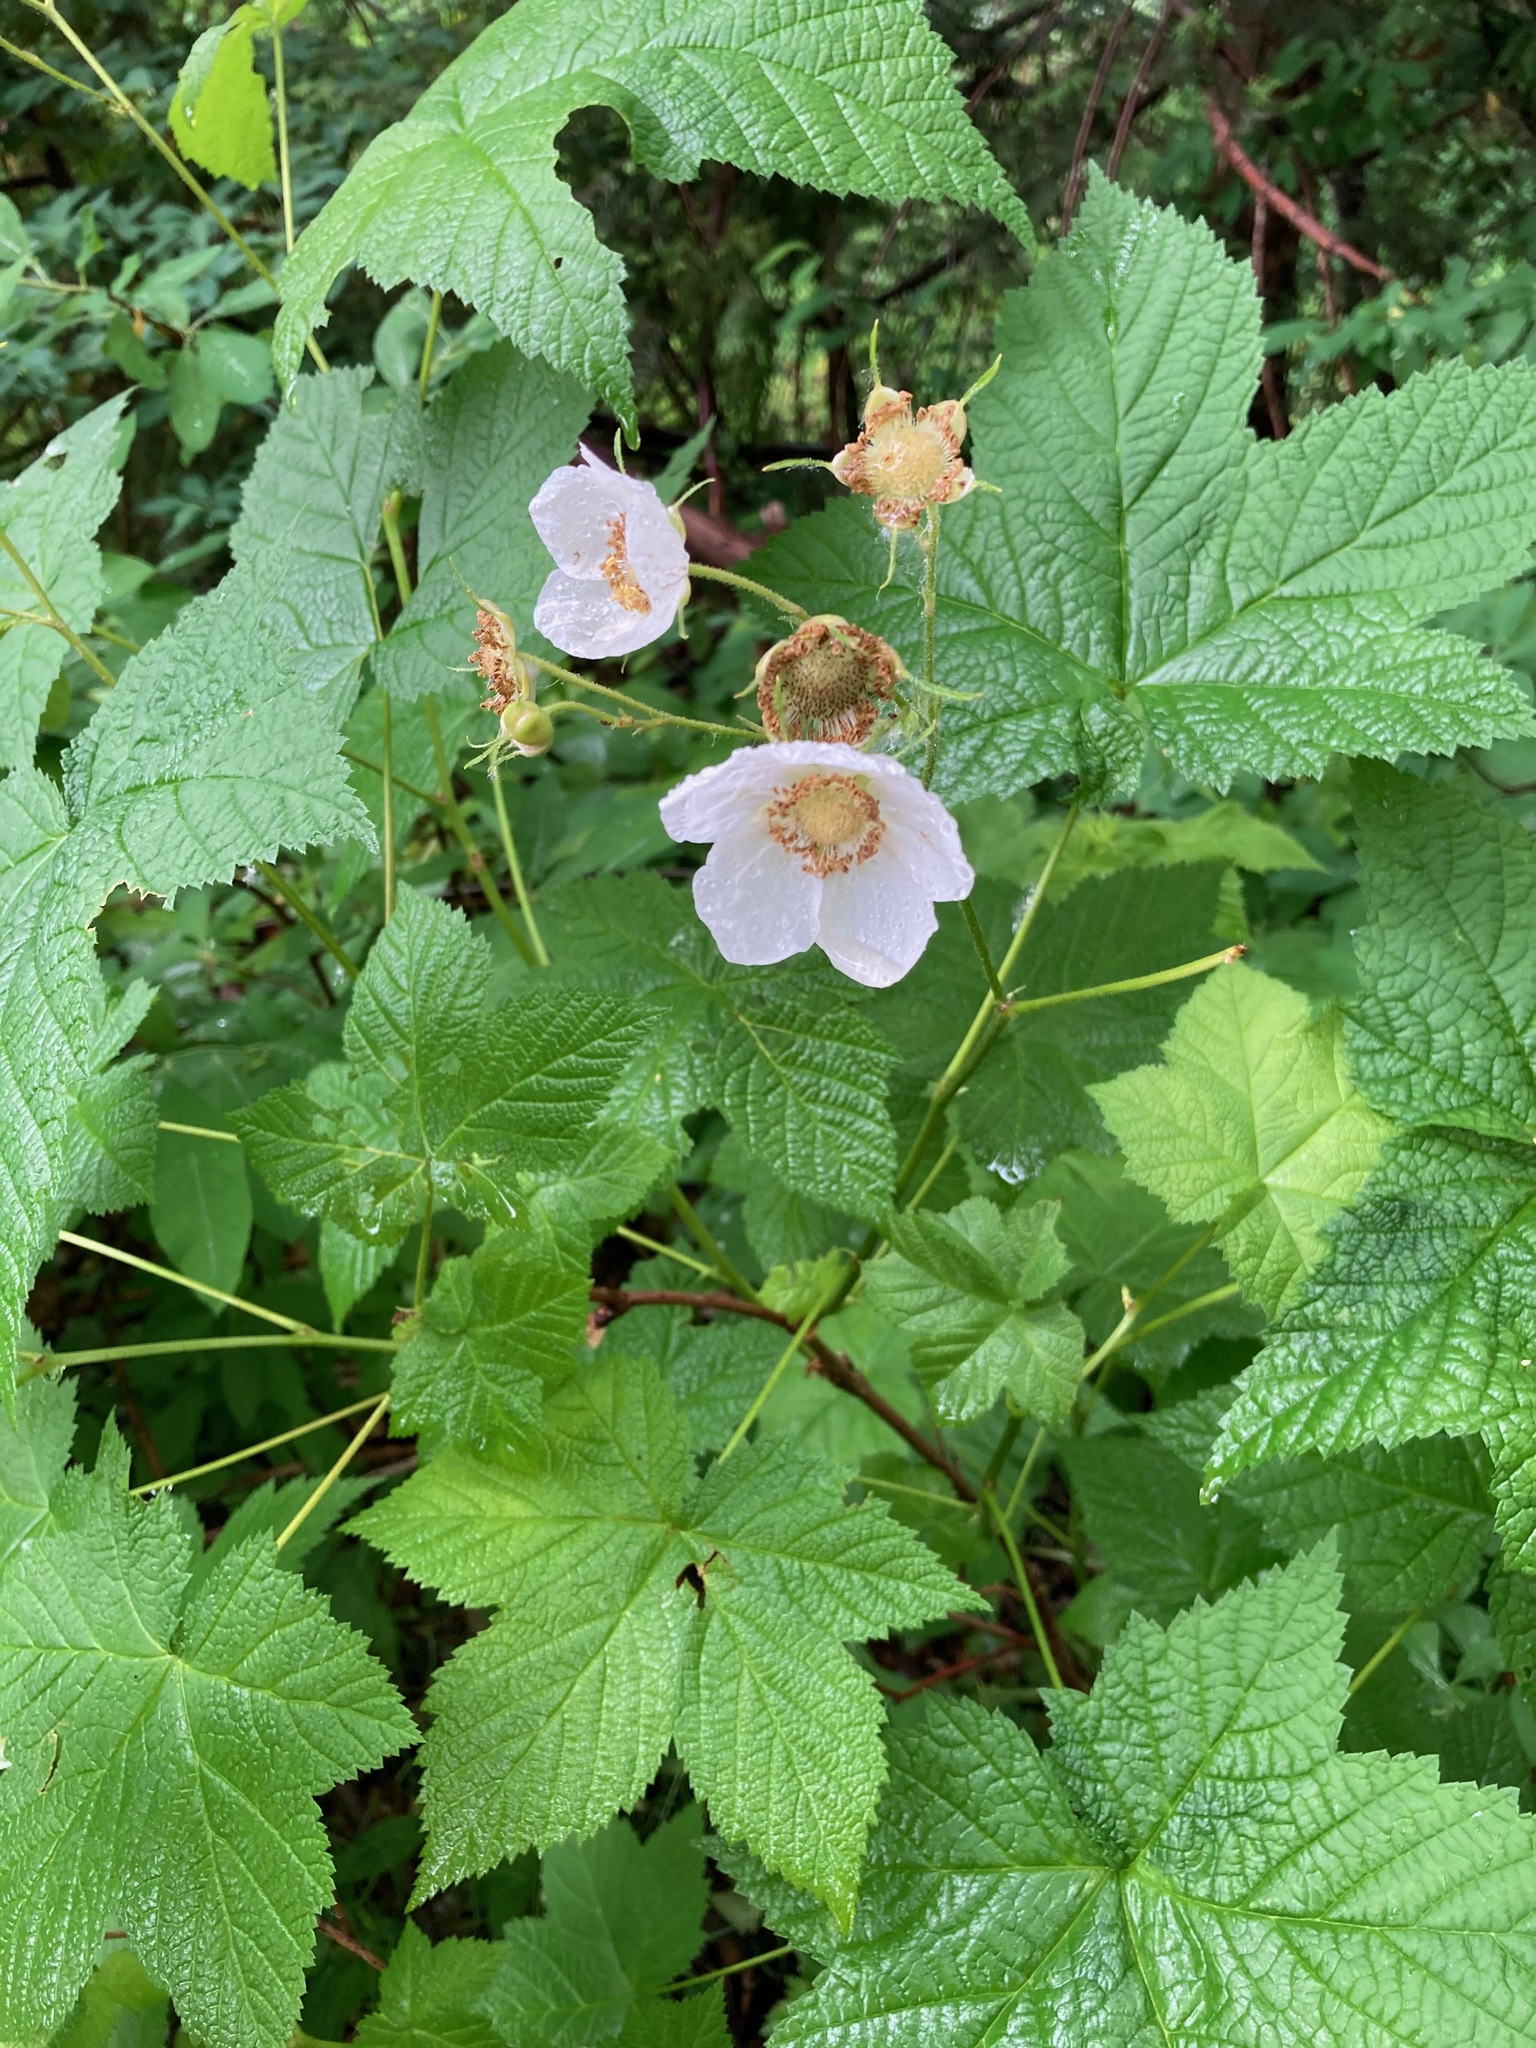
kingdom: Plantae
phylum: Tracheophyta
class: Magnoliopsida
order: Rosales
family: Rosaceae
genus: Rubus
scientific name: Rubus parviflorus
